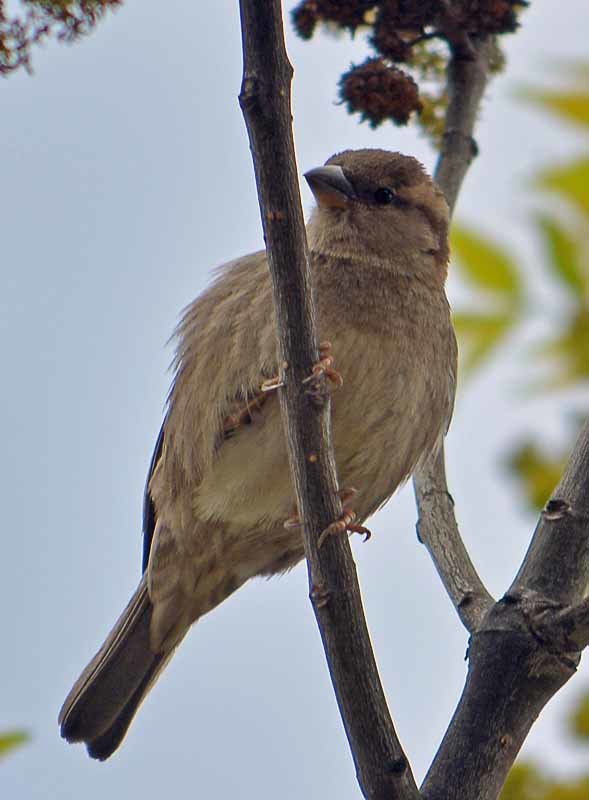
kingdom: Animalia
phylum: Chordata
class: Aves
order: Passeriformes
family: Passeridae
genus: Passer
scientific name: Passer domesticus
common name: House sparrow
